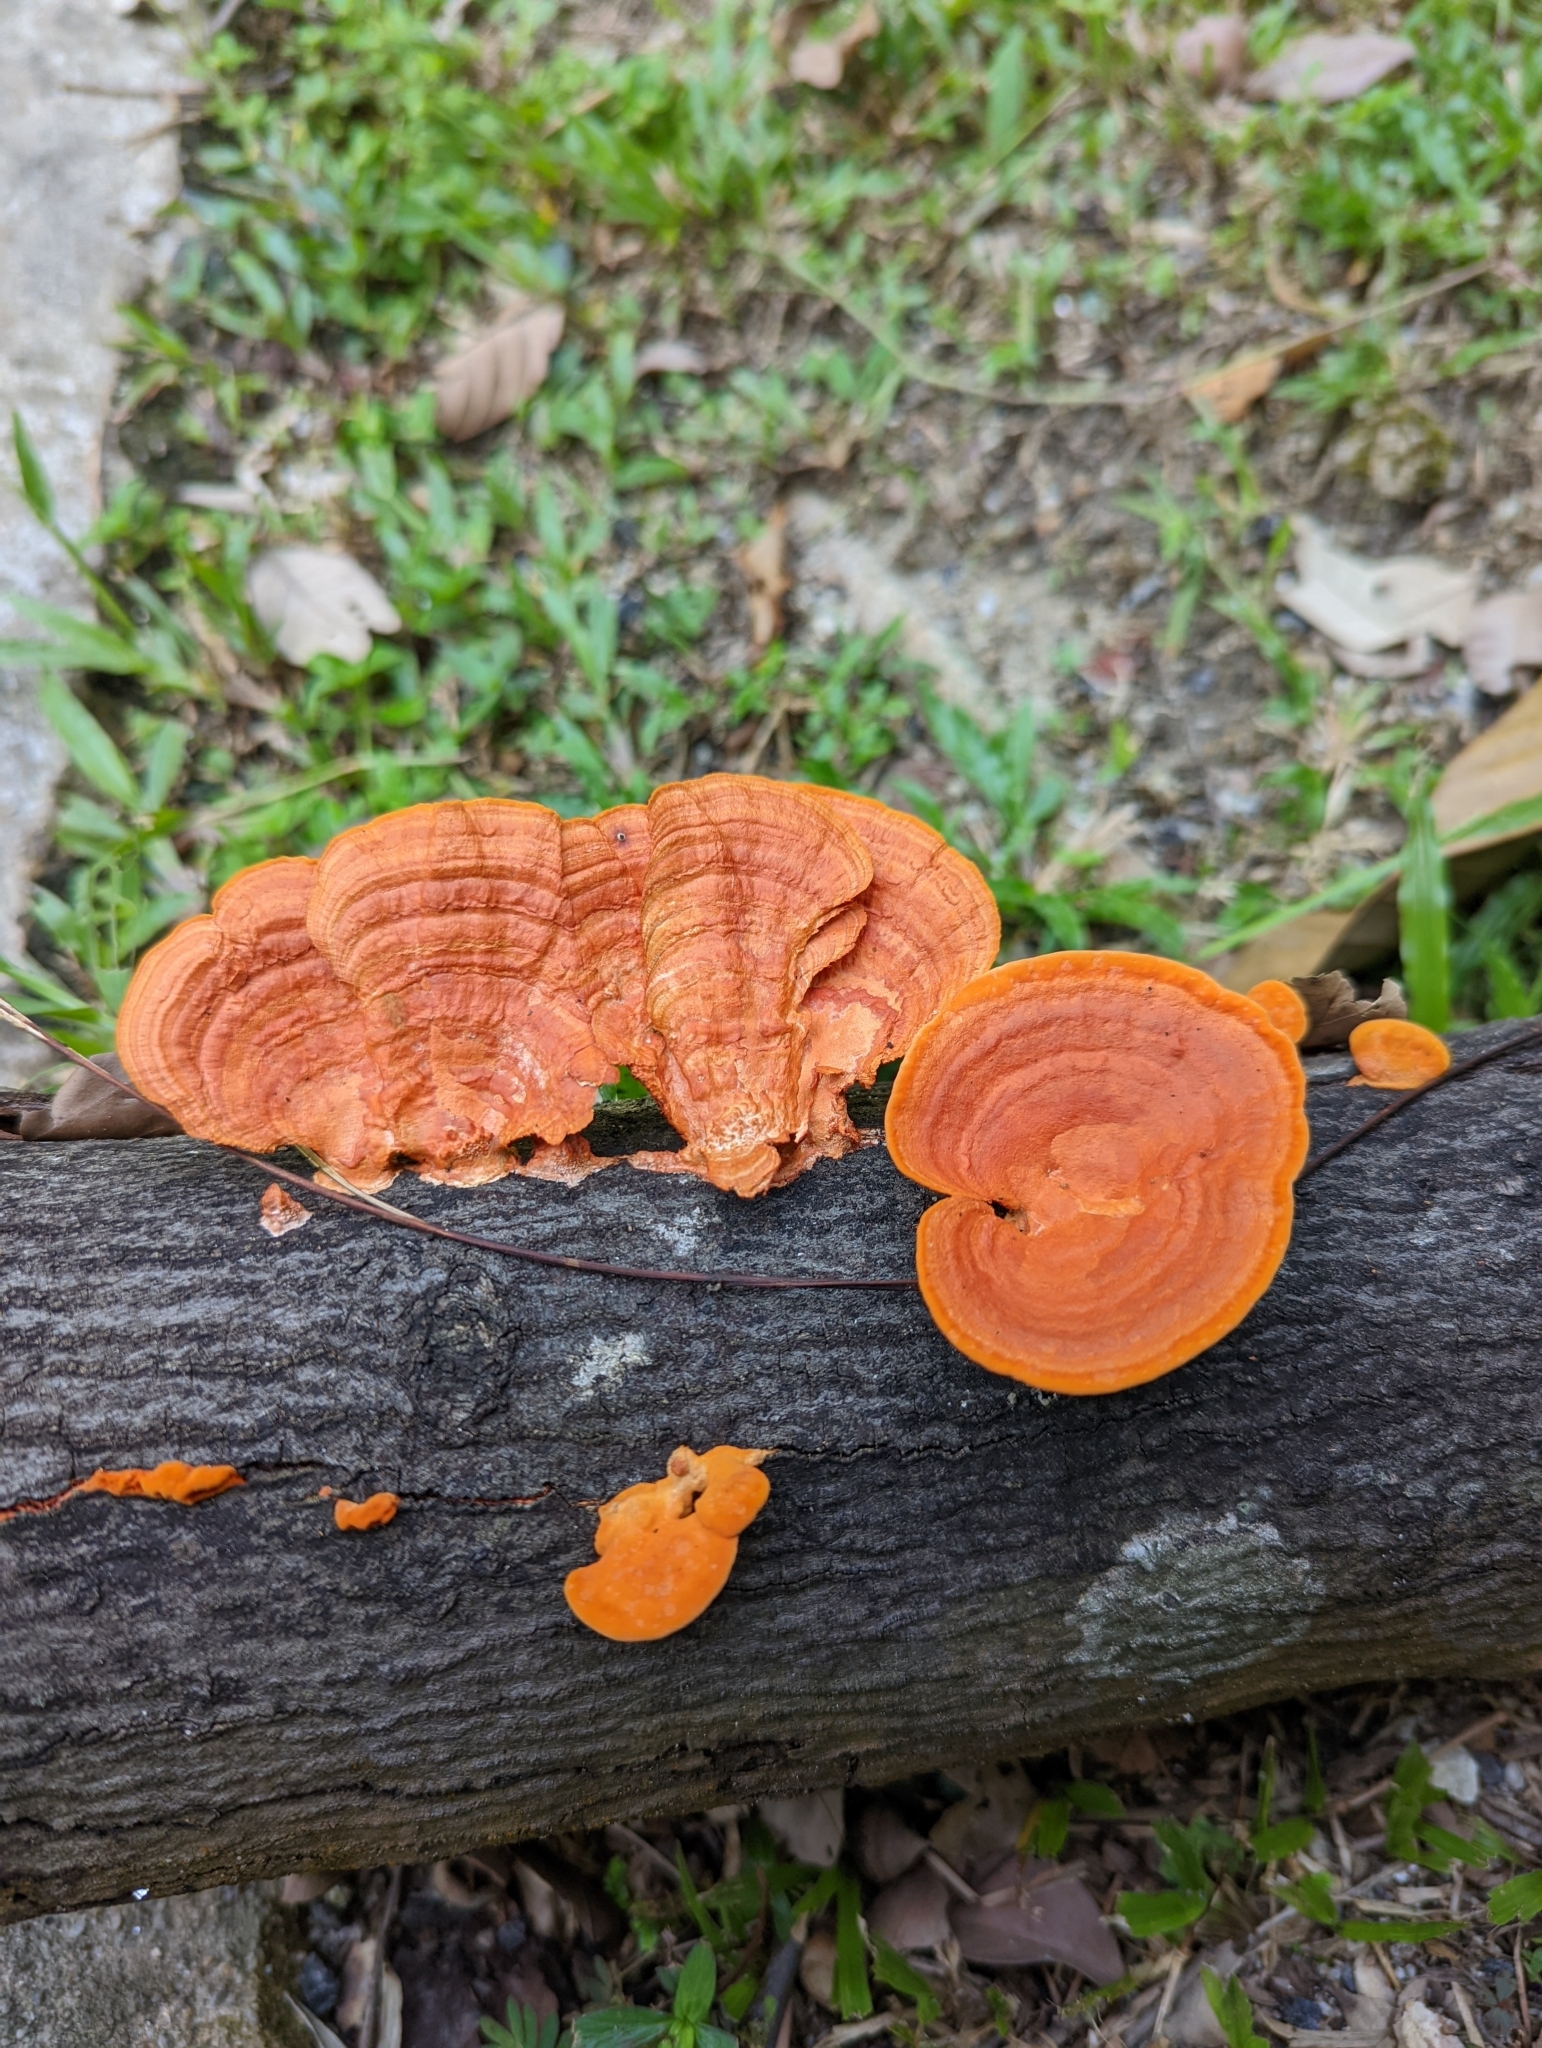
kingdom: Fungi
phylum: Basidiomycota
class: Agaricomycetes
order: Polyporales
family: Polyporaceae
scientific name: Polyporaceae
